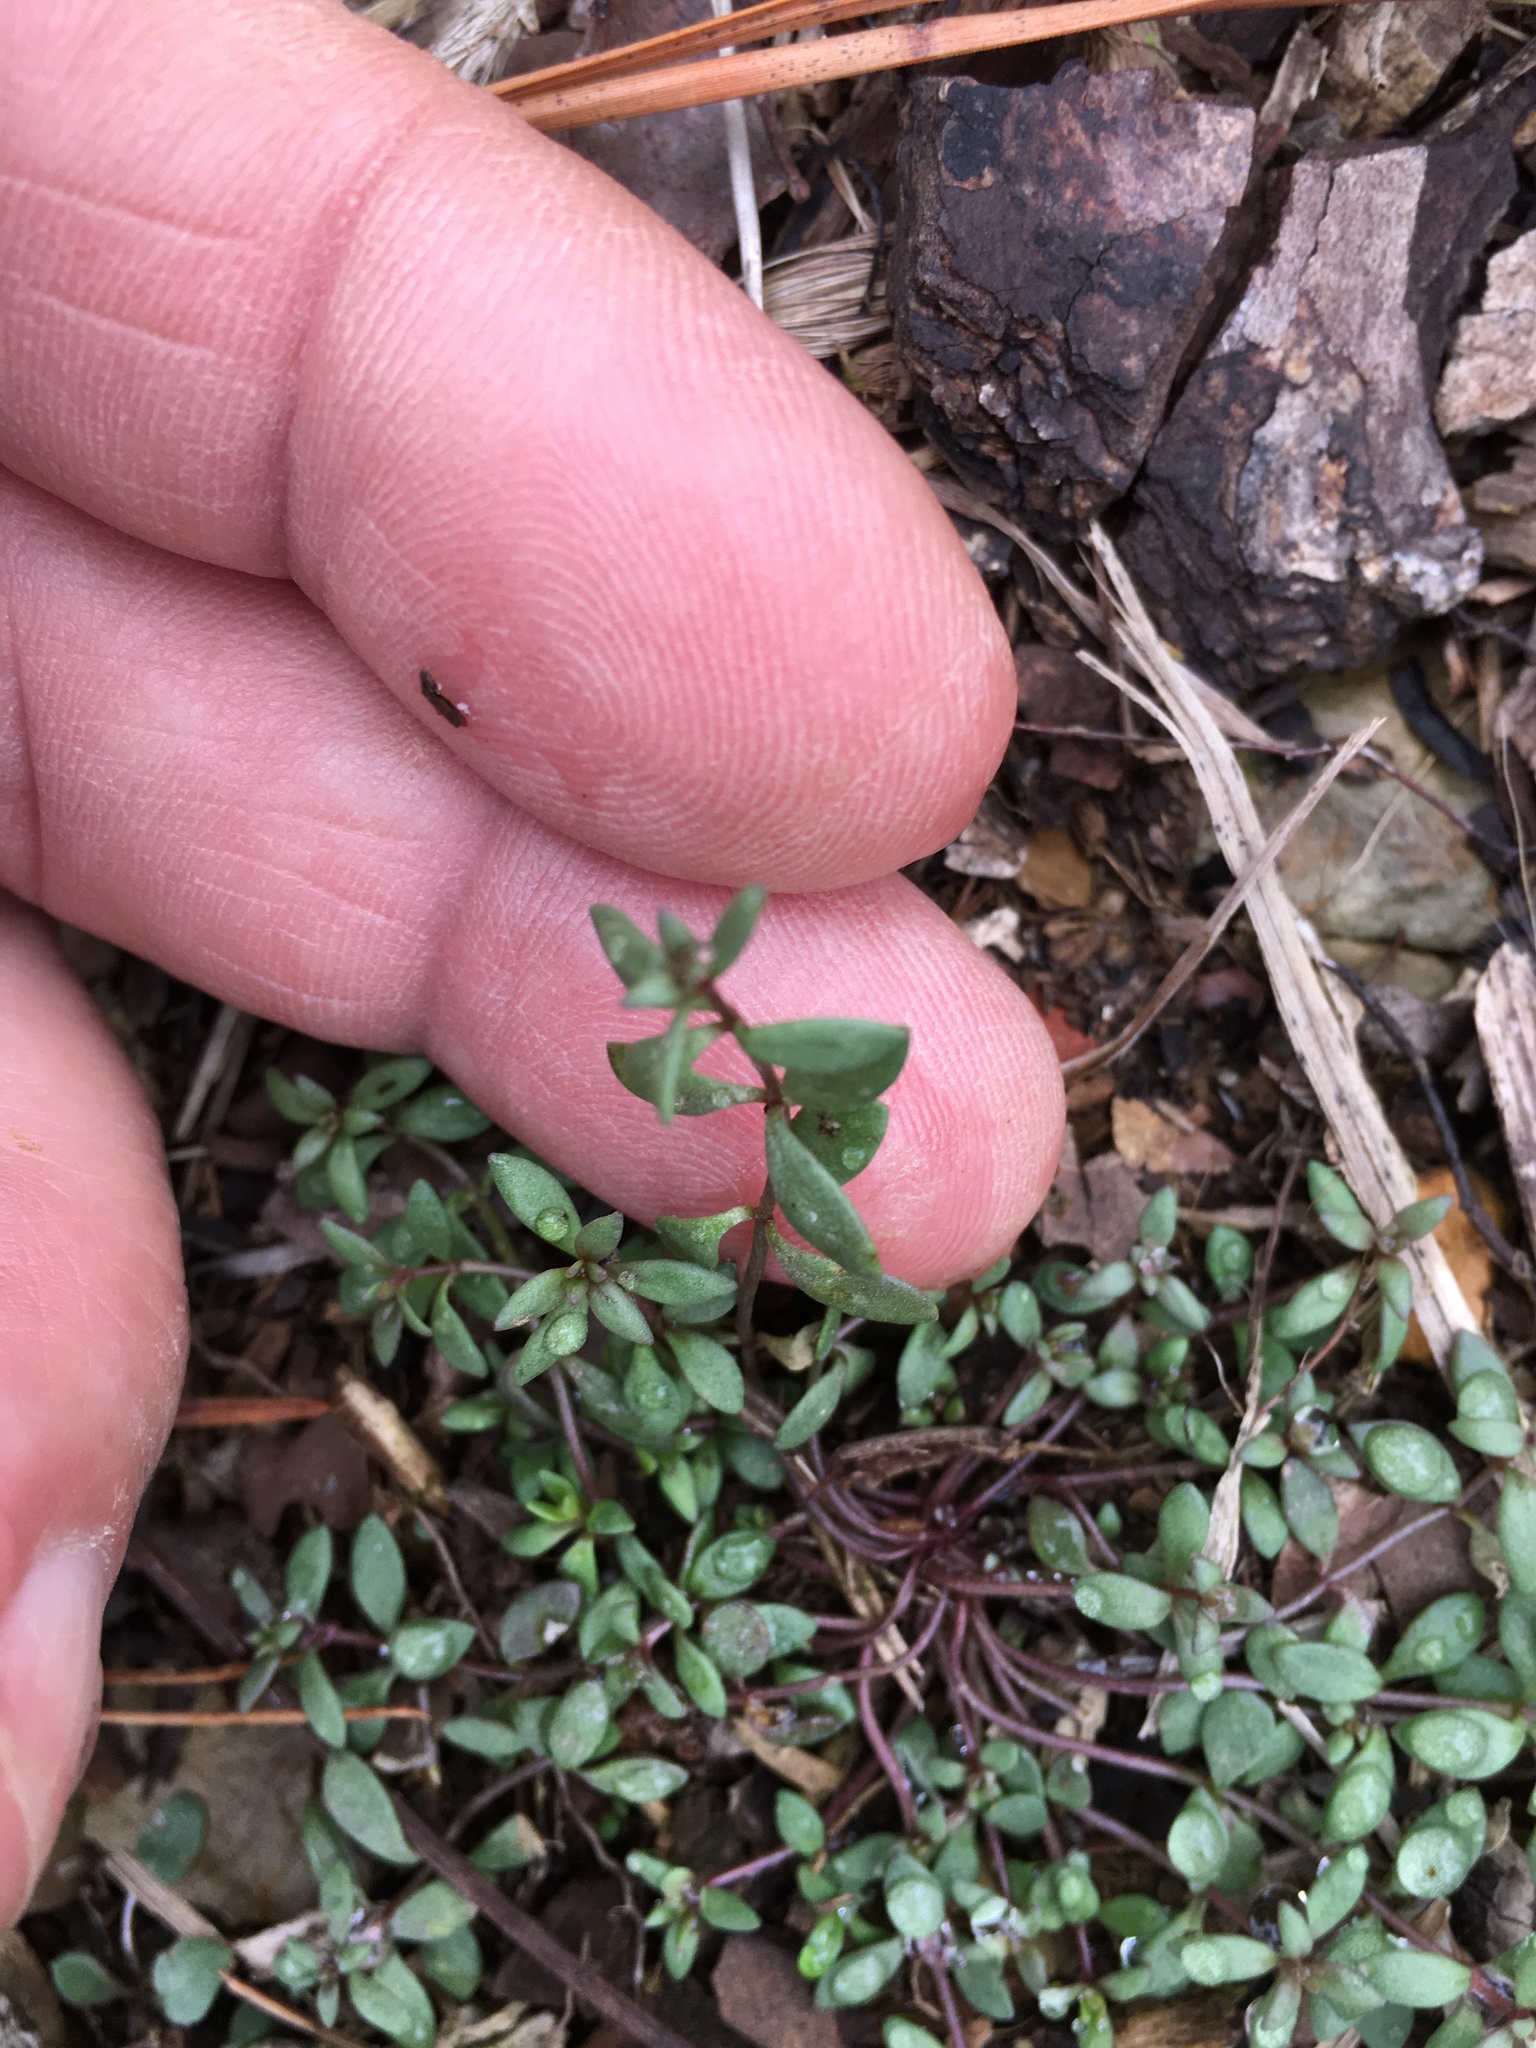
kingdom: Plantae
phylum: Tracheophyta
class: Magnoliopsida
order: Lamiales
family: Plantaginaceae
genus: Nuttallanthus
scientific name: Nuttallanthus canadensis
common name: Blue toadflax
